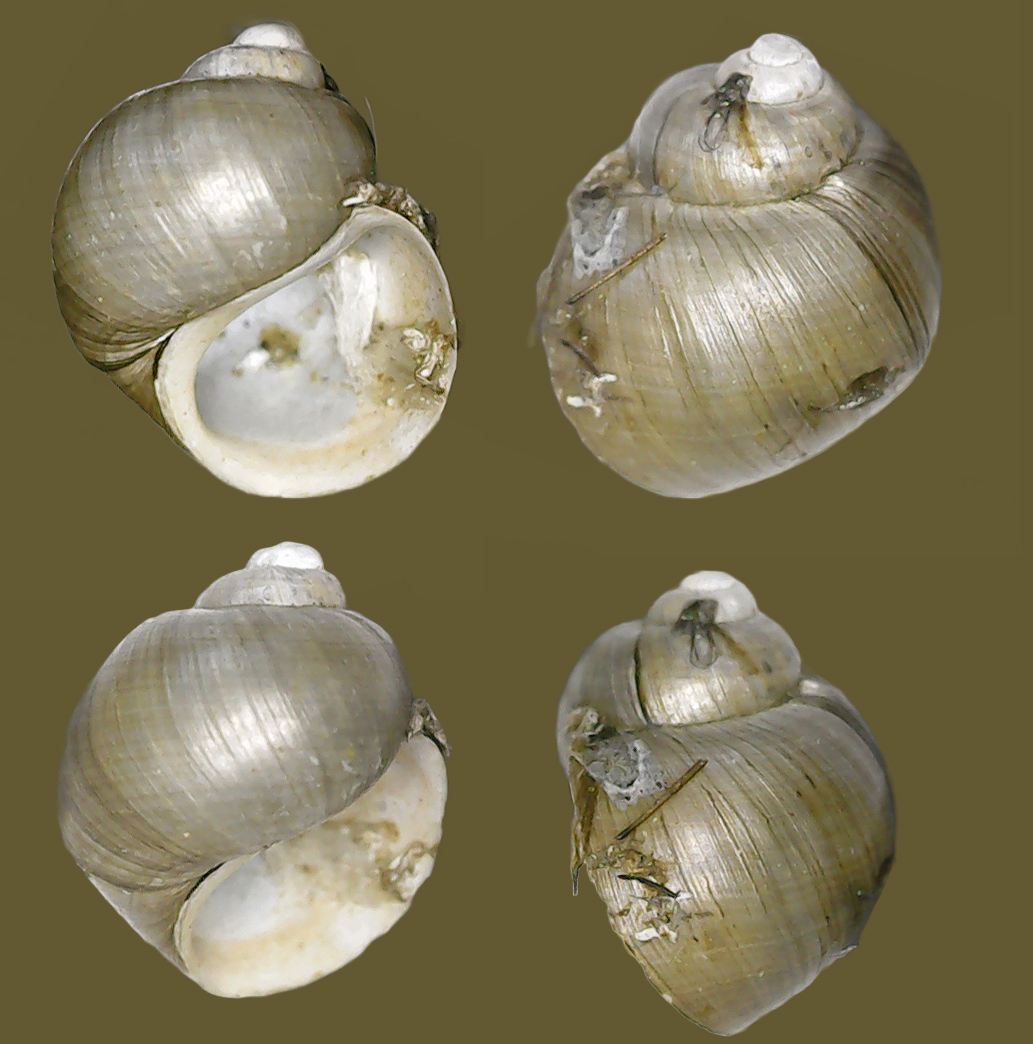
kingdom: Animalia
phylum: Mollusca
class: Gastropoda
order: Littorinimorpha
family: Lithoglyphidae
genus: Lithoglyphus
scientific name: Lithoglyphus naticoides
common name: Gravel snail
